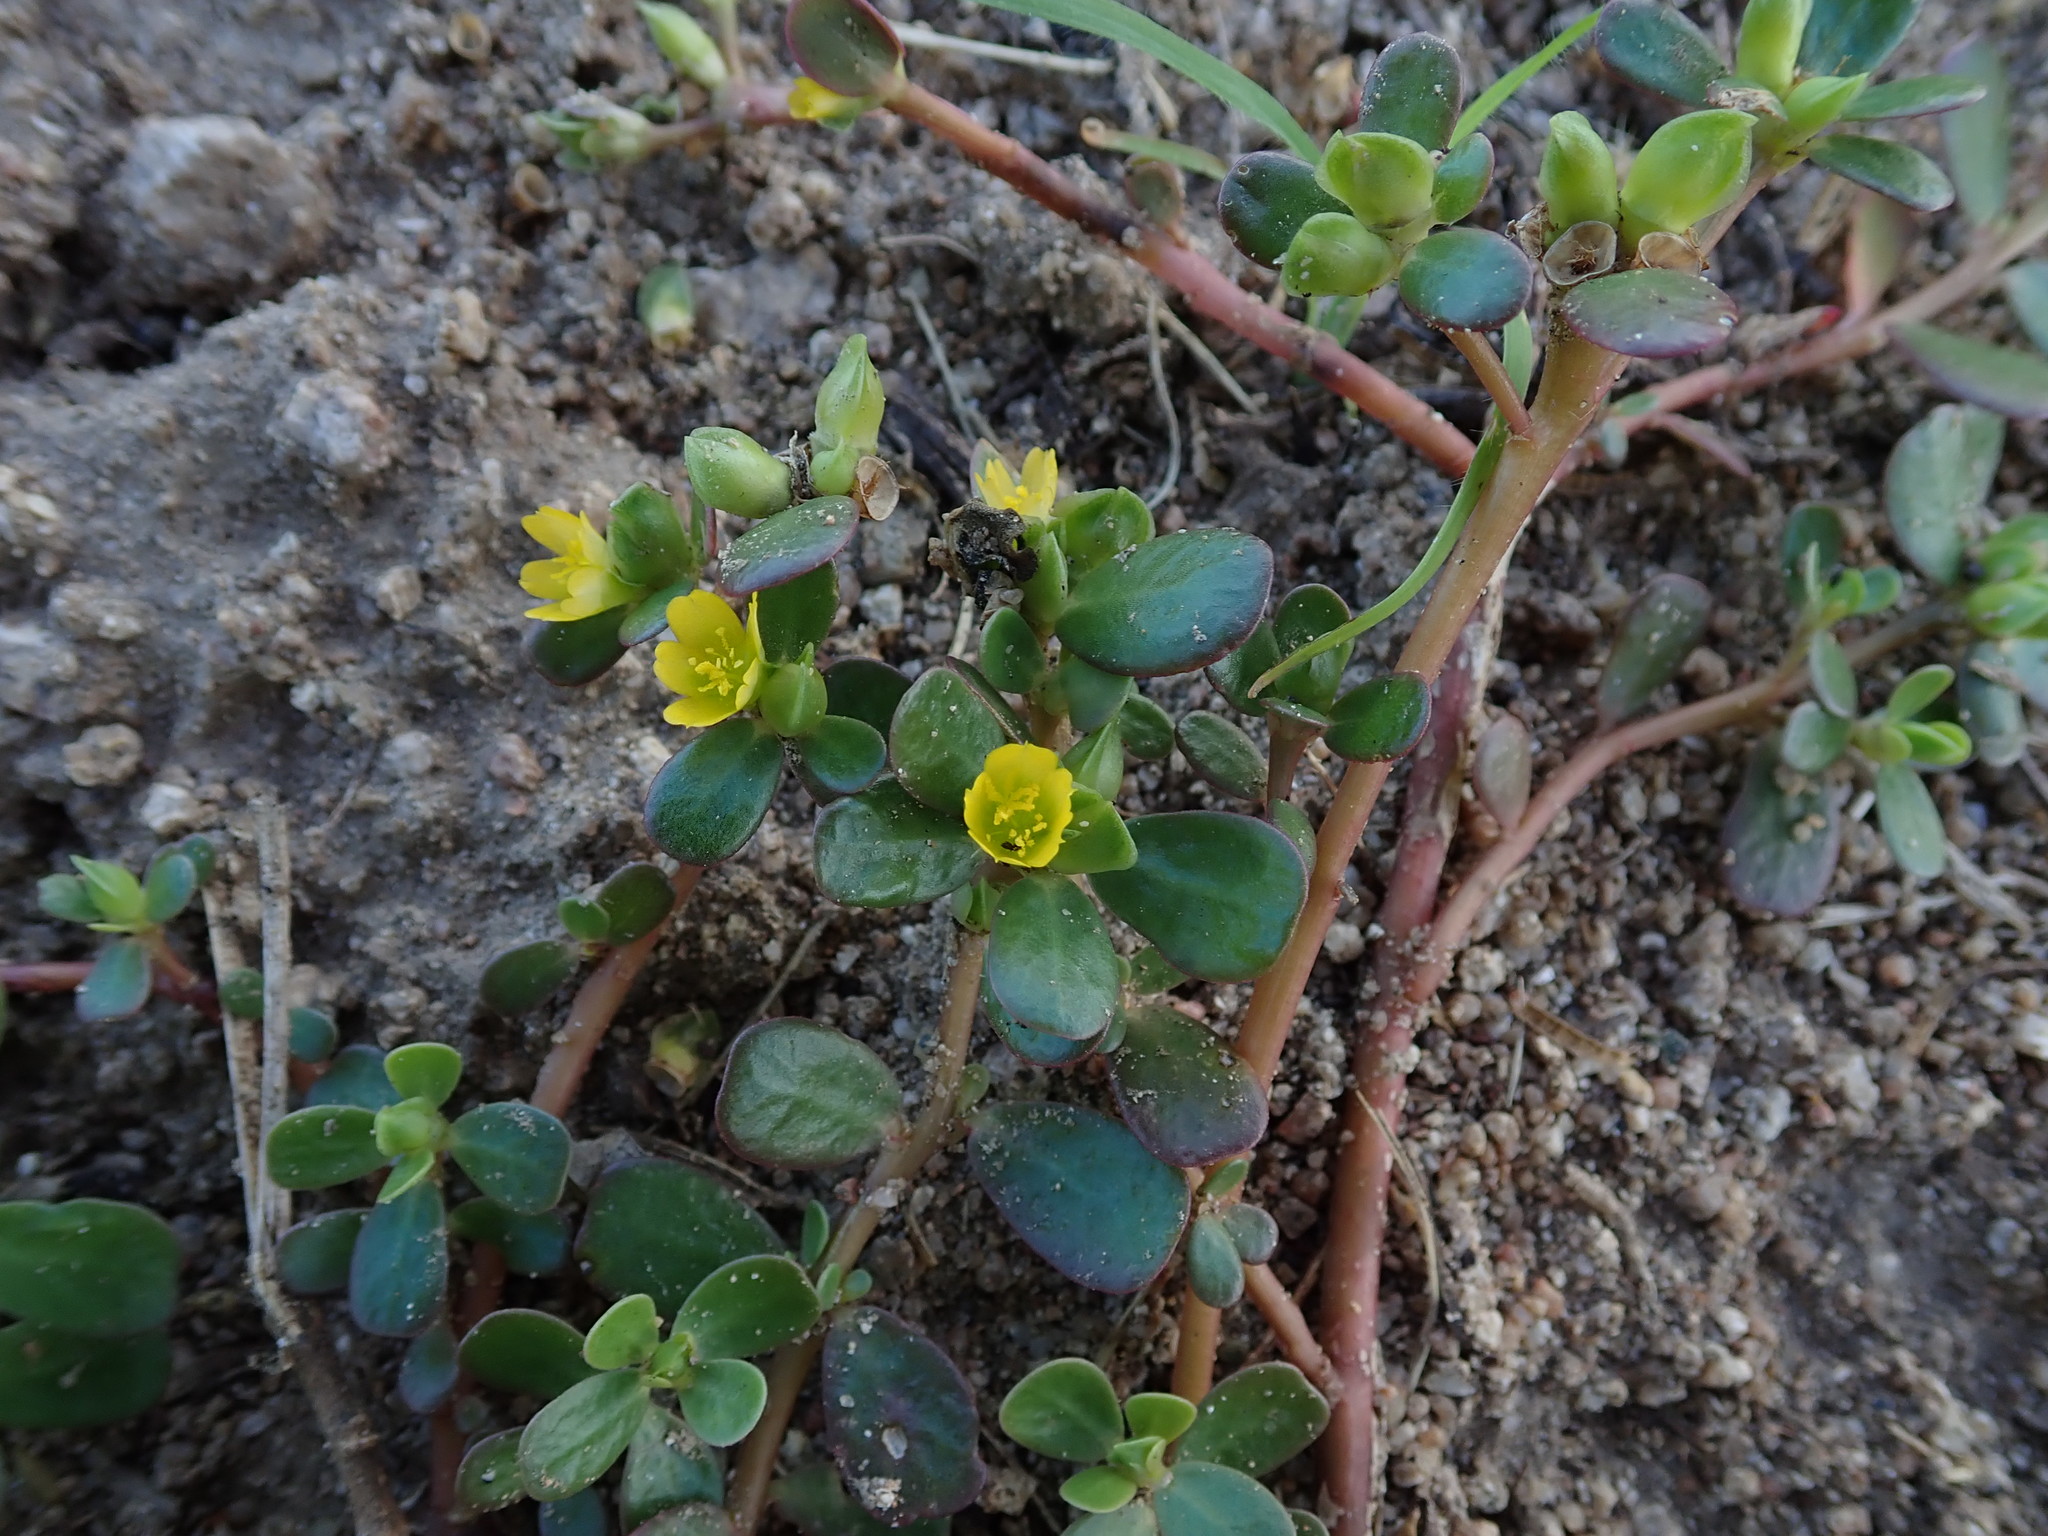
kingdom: Plantae
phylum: Tracheophyta
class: Magnoliopsida
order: Caryophyllales
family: Portulacaceae
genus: Portulaca
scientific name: Portulaca oleracea
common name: Common purslane
